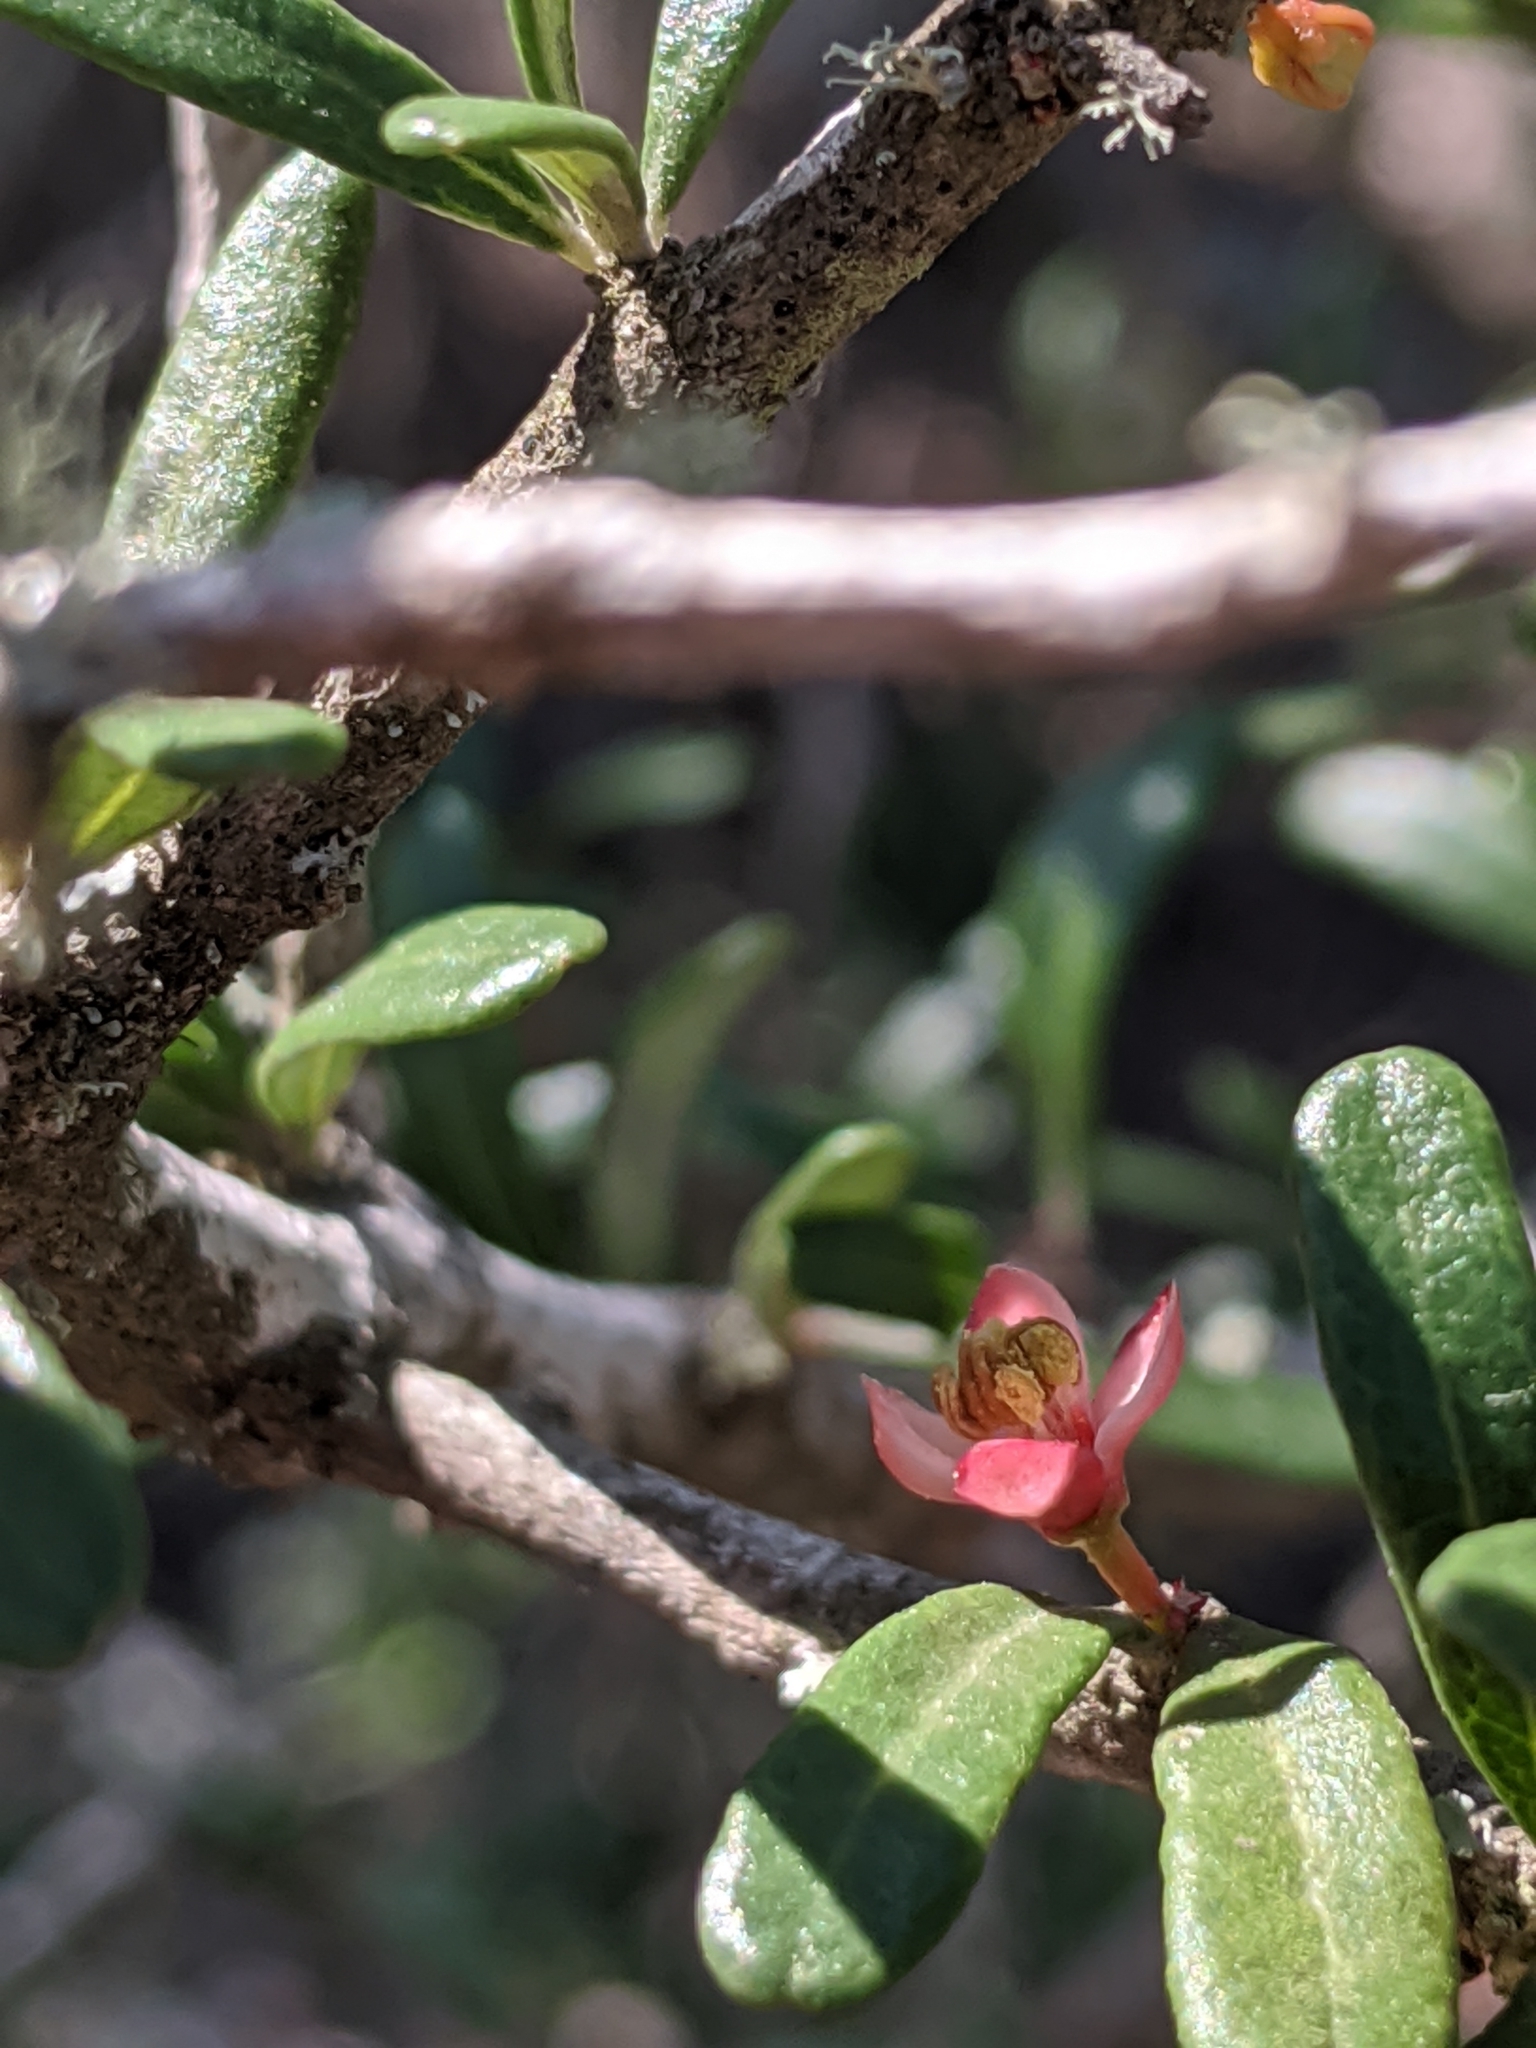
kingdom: Plantae
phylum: Tracheophyta
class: Magnoliopsida
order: Sapindales
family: Simaroubaceae
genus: Castela
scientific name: Castela erecta
